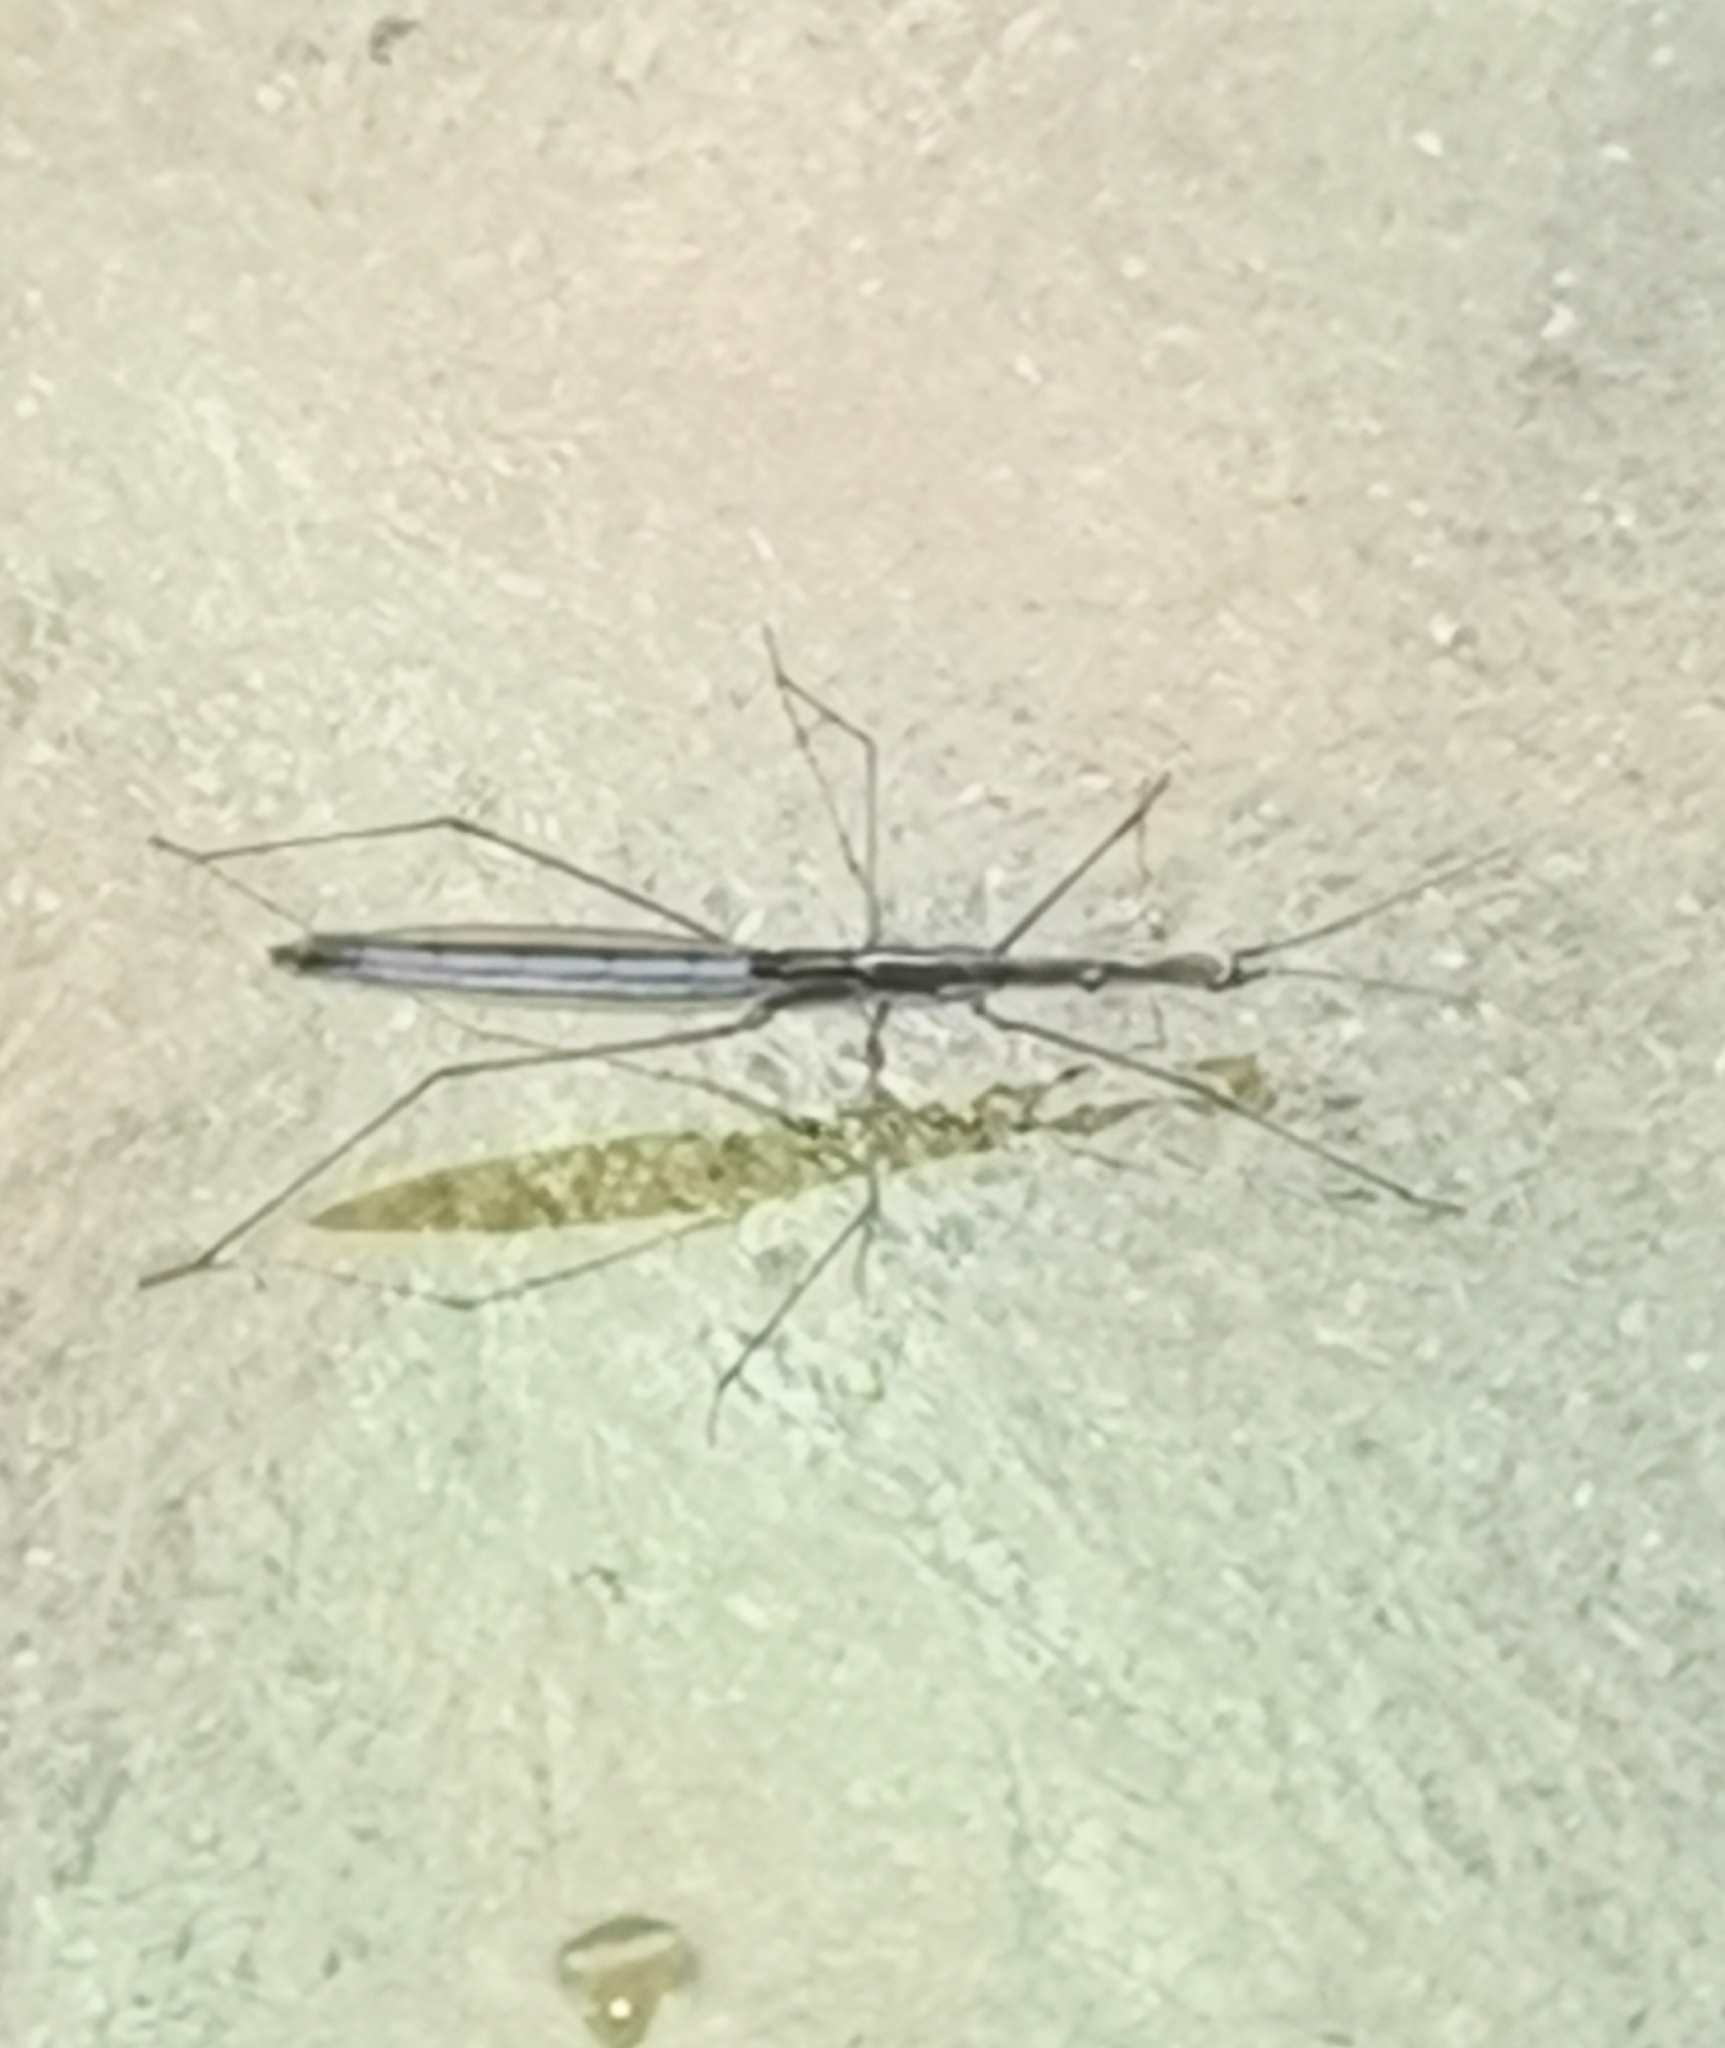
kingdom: Animalia
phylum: Arthropoda
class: Insecta
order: Hemiptera
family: Hydrometridae
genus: Hydrometra
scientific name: Hydrometra gracilenta
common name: Lesser water measurer
